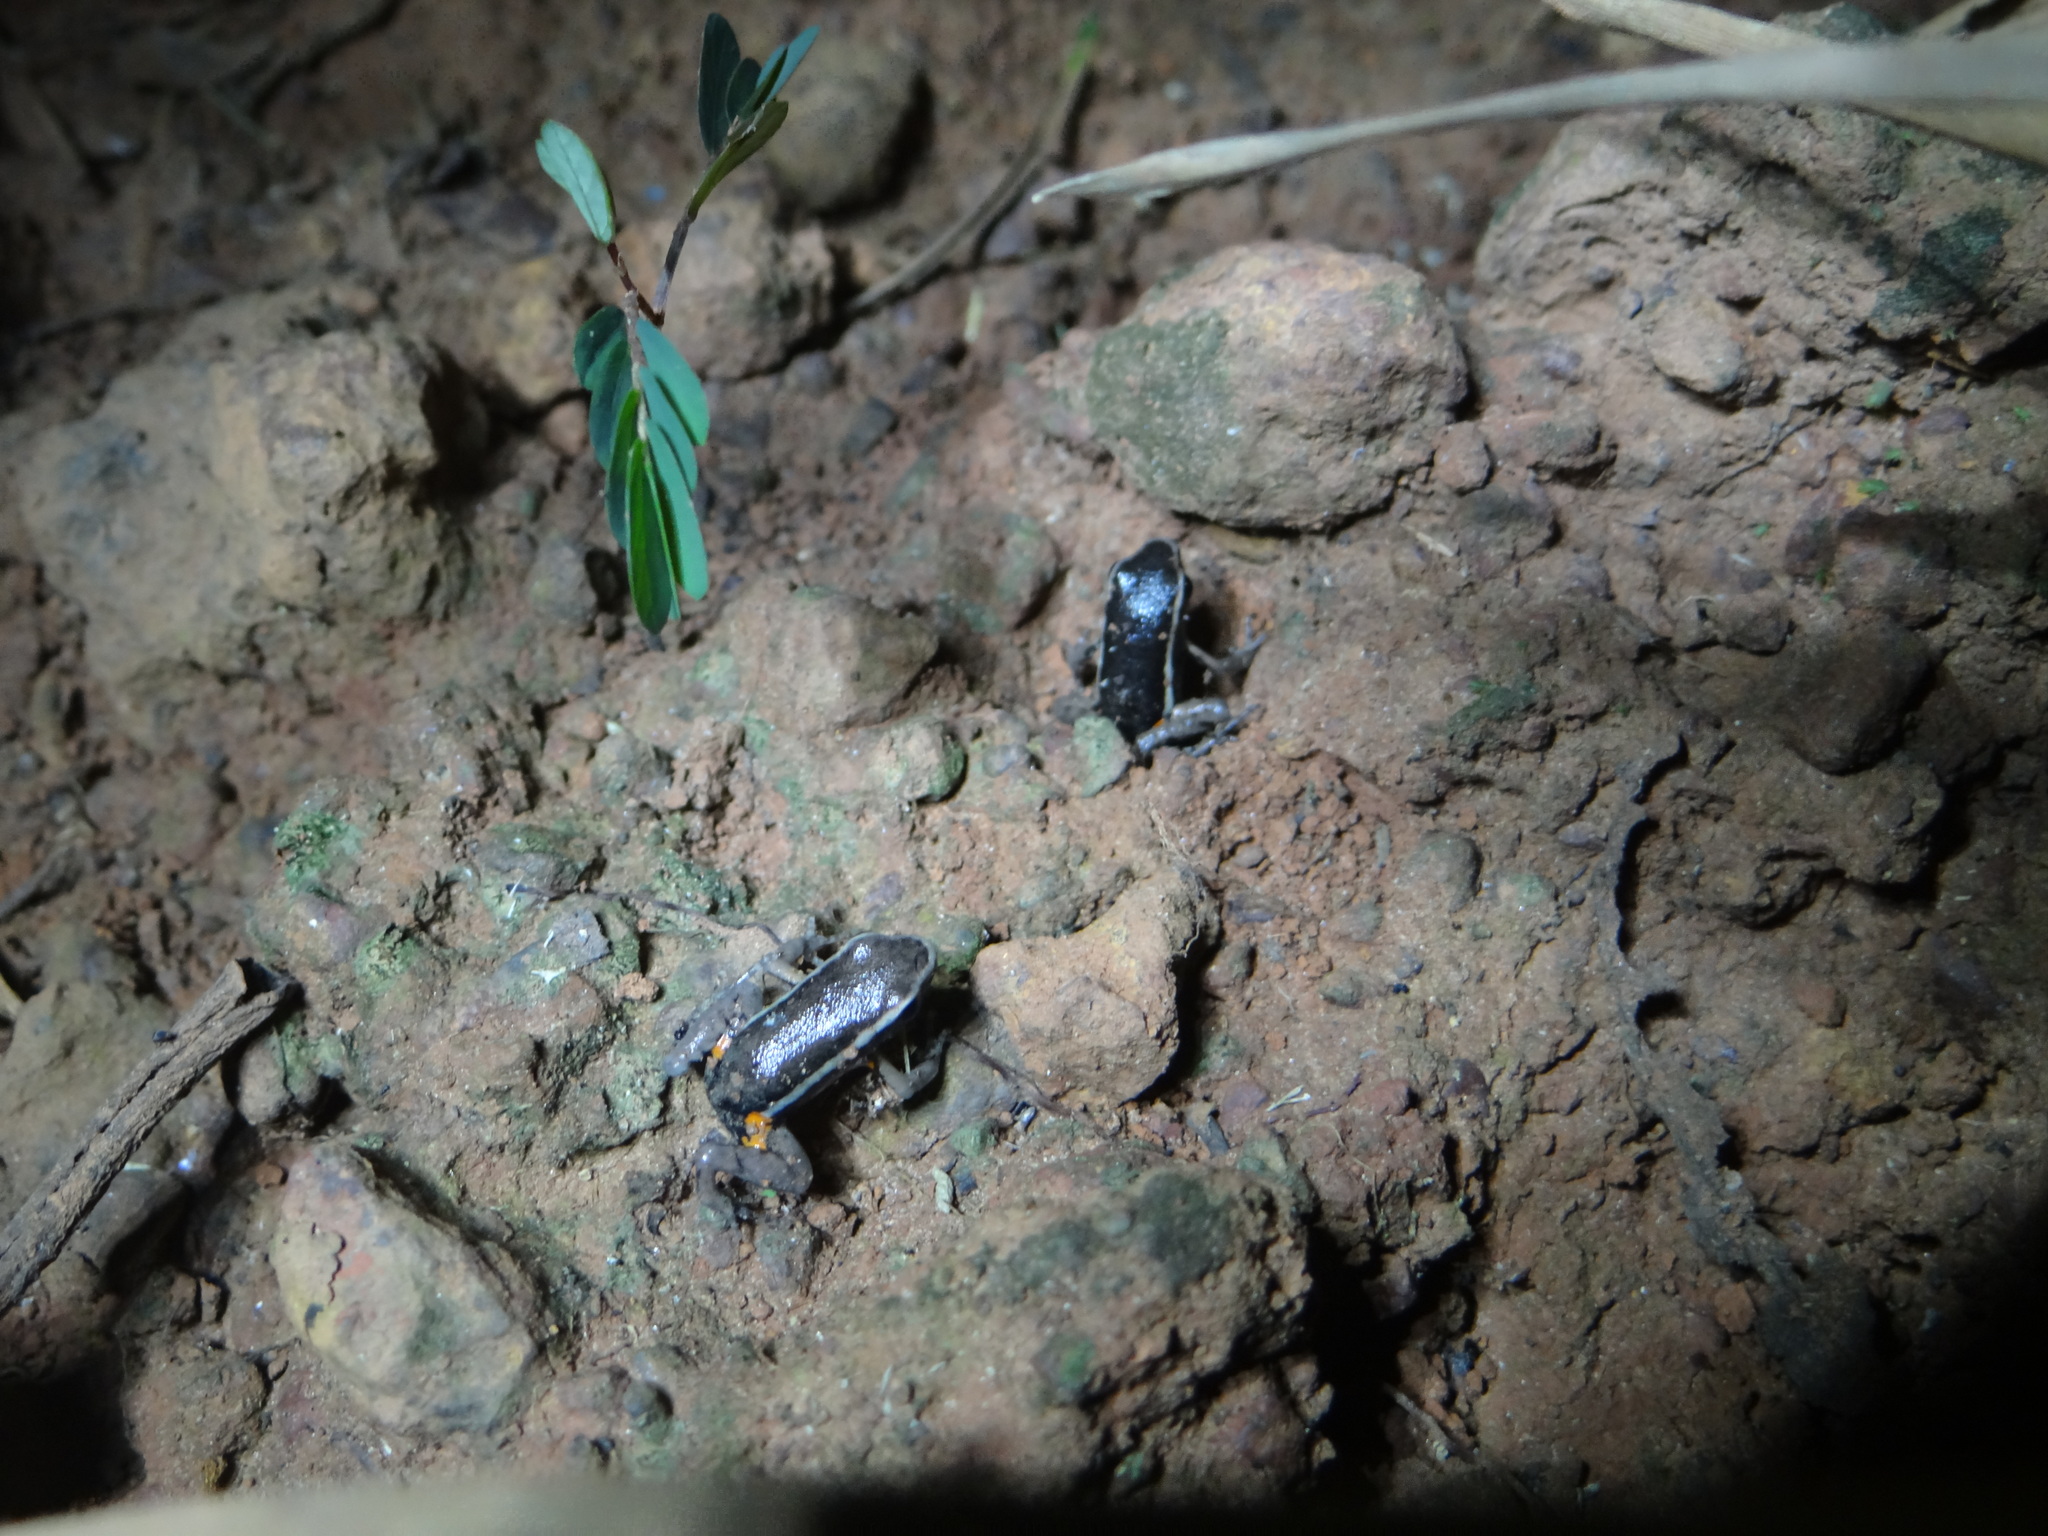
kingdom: Animalia
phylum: Chordata
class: Amphibia
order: Anura
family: Dendrobatidae
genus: Ameerega
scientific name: Ameerega picta
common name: Spot-legged poison frog
